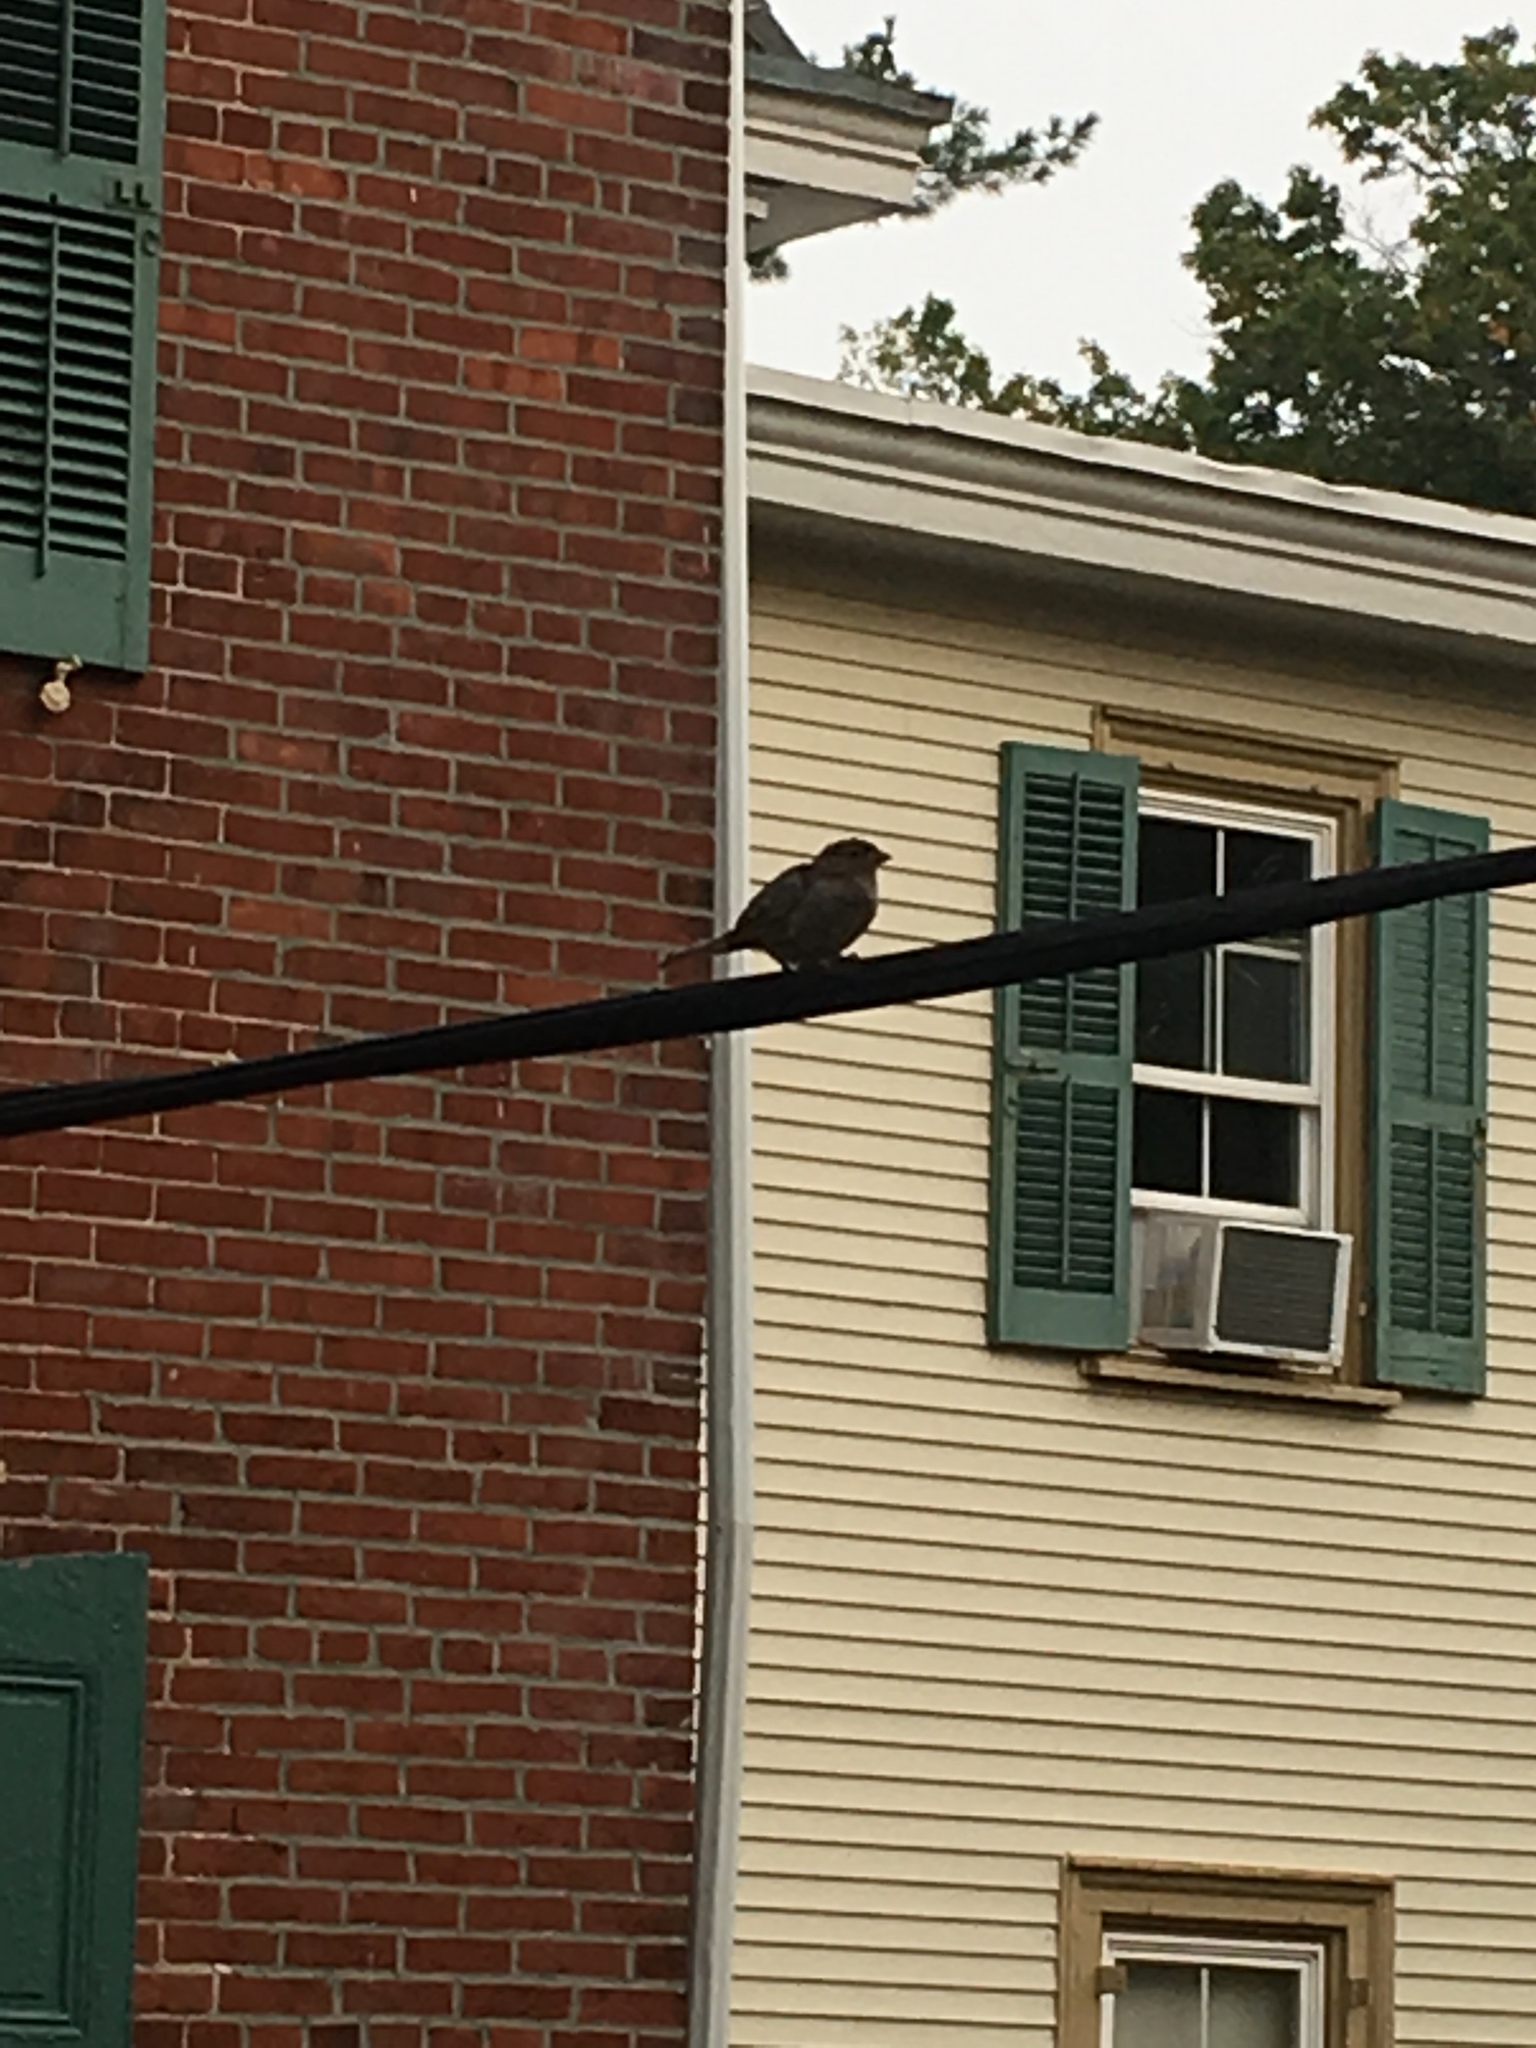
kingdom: Animalia
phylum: Chordata
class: Aves
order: Passeriformes
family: Passeridae
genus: Passer
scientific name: Passer domesticus
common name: House sparrow
